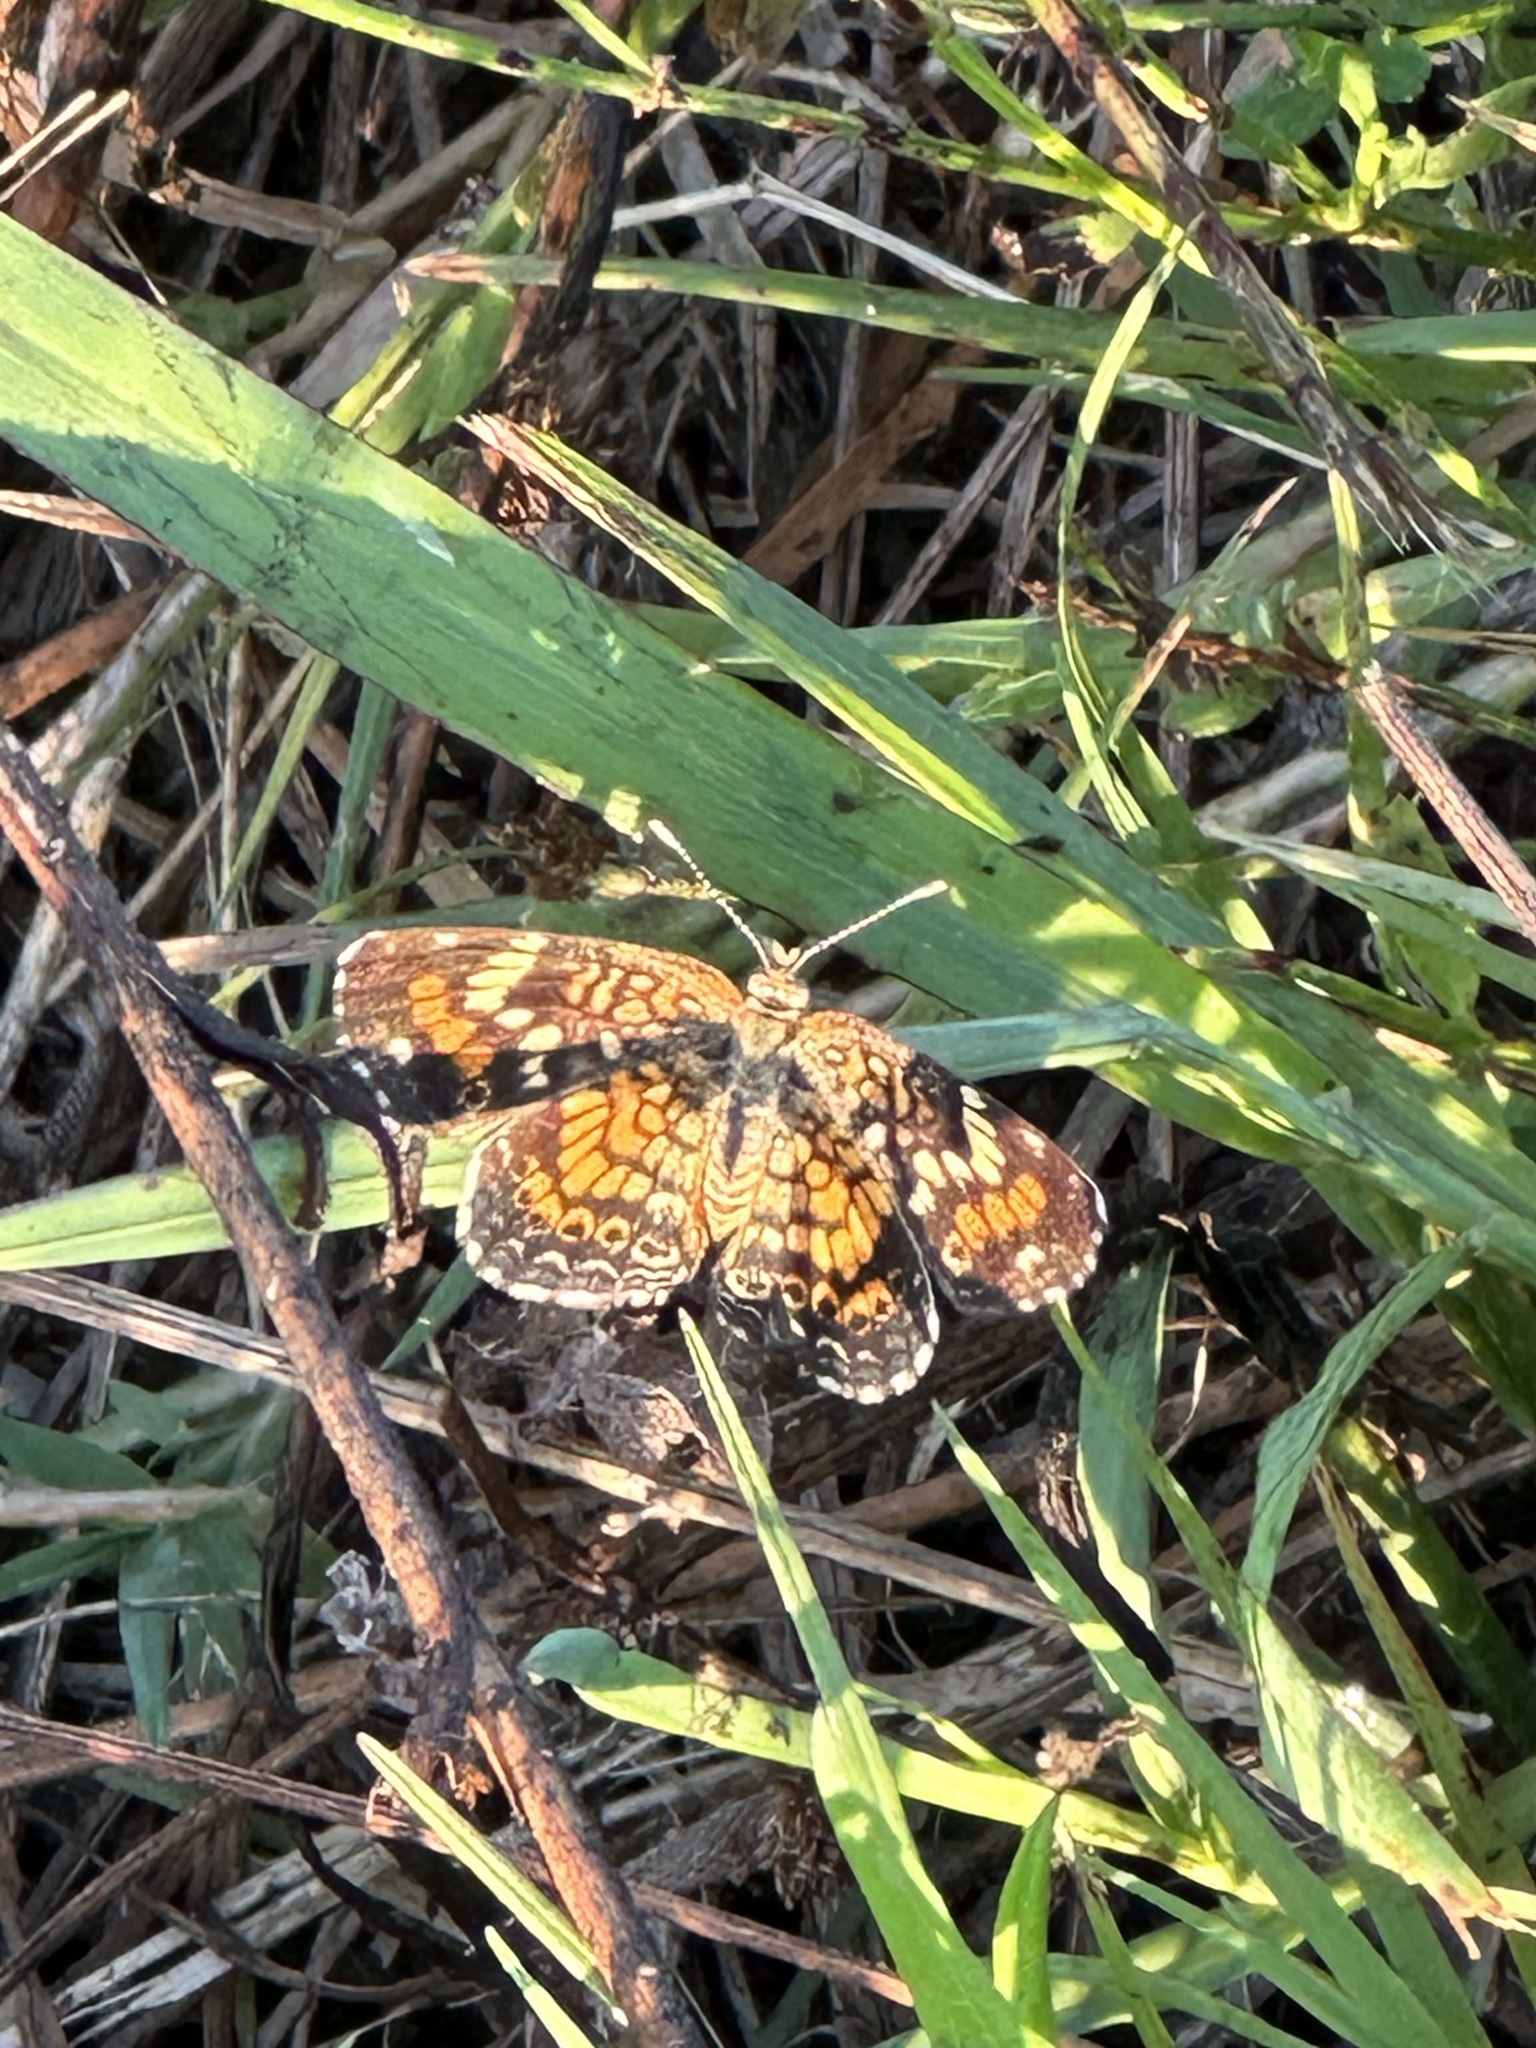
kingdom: Animalia
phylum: Arthropoda
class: Insecta
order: Lepidoptera
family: Nymphalidae
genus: Phyciodes
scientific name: Phyciodes phaon
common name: Phaon crescent
